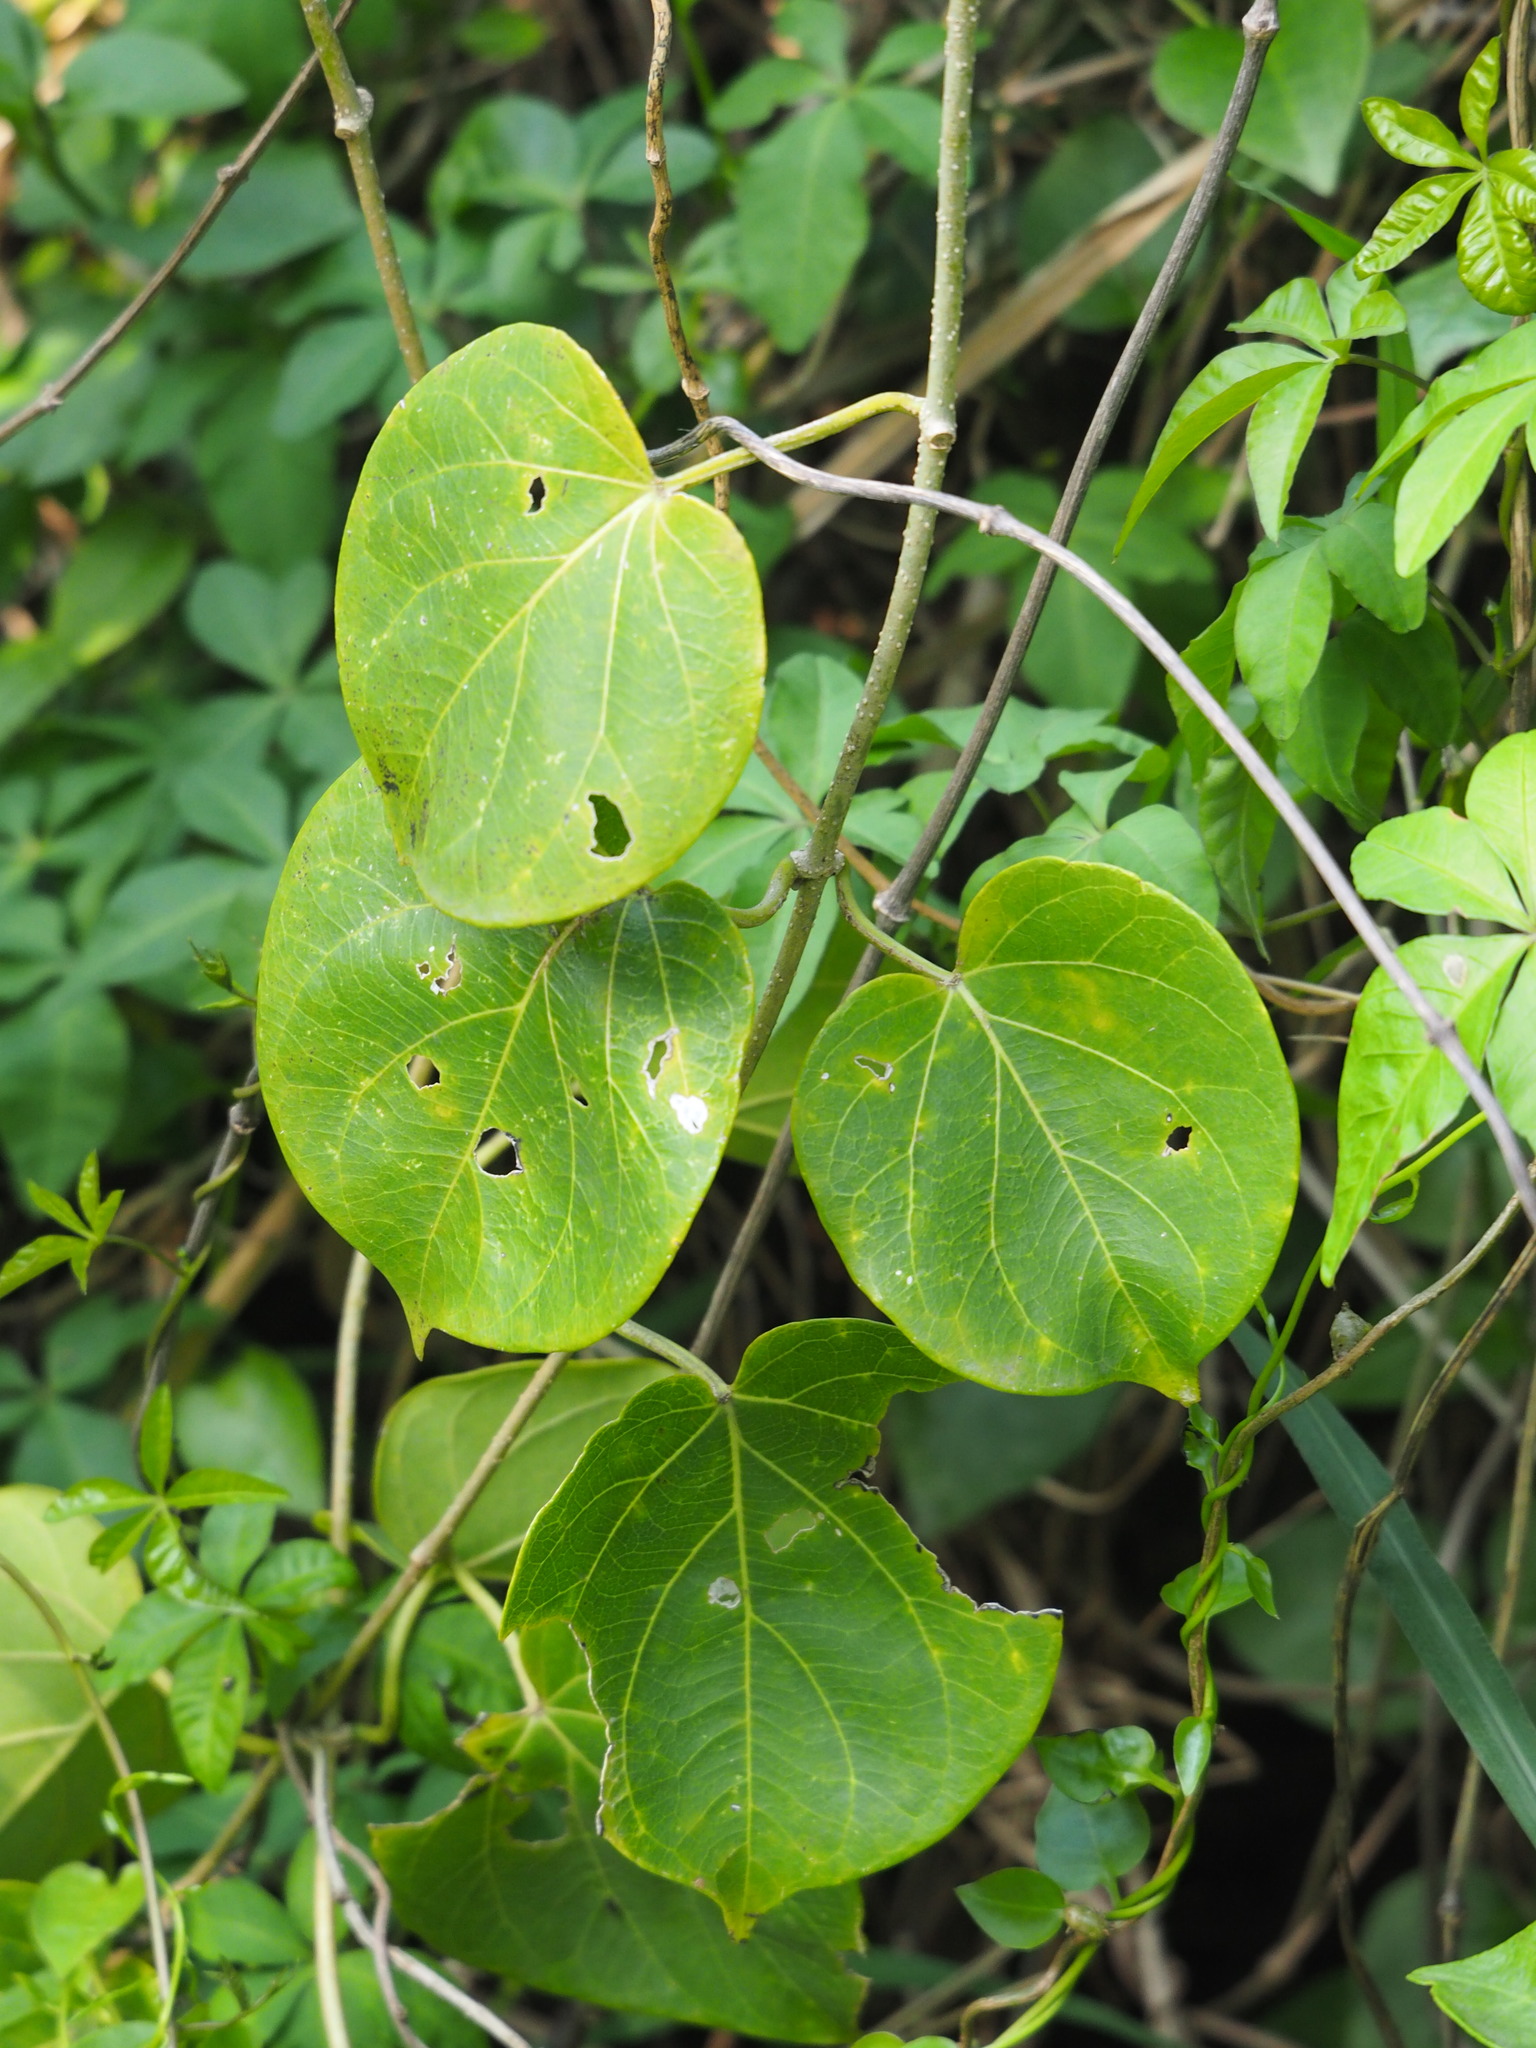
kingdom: Plantae
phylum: Tracheophyta
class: Magnoliopsida
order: Gentianales
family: Apocynaceae
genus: Stephanotis
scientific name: Stephanotis volubilis
